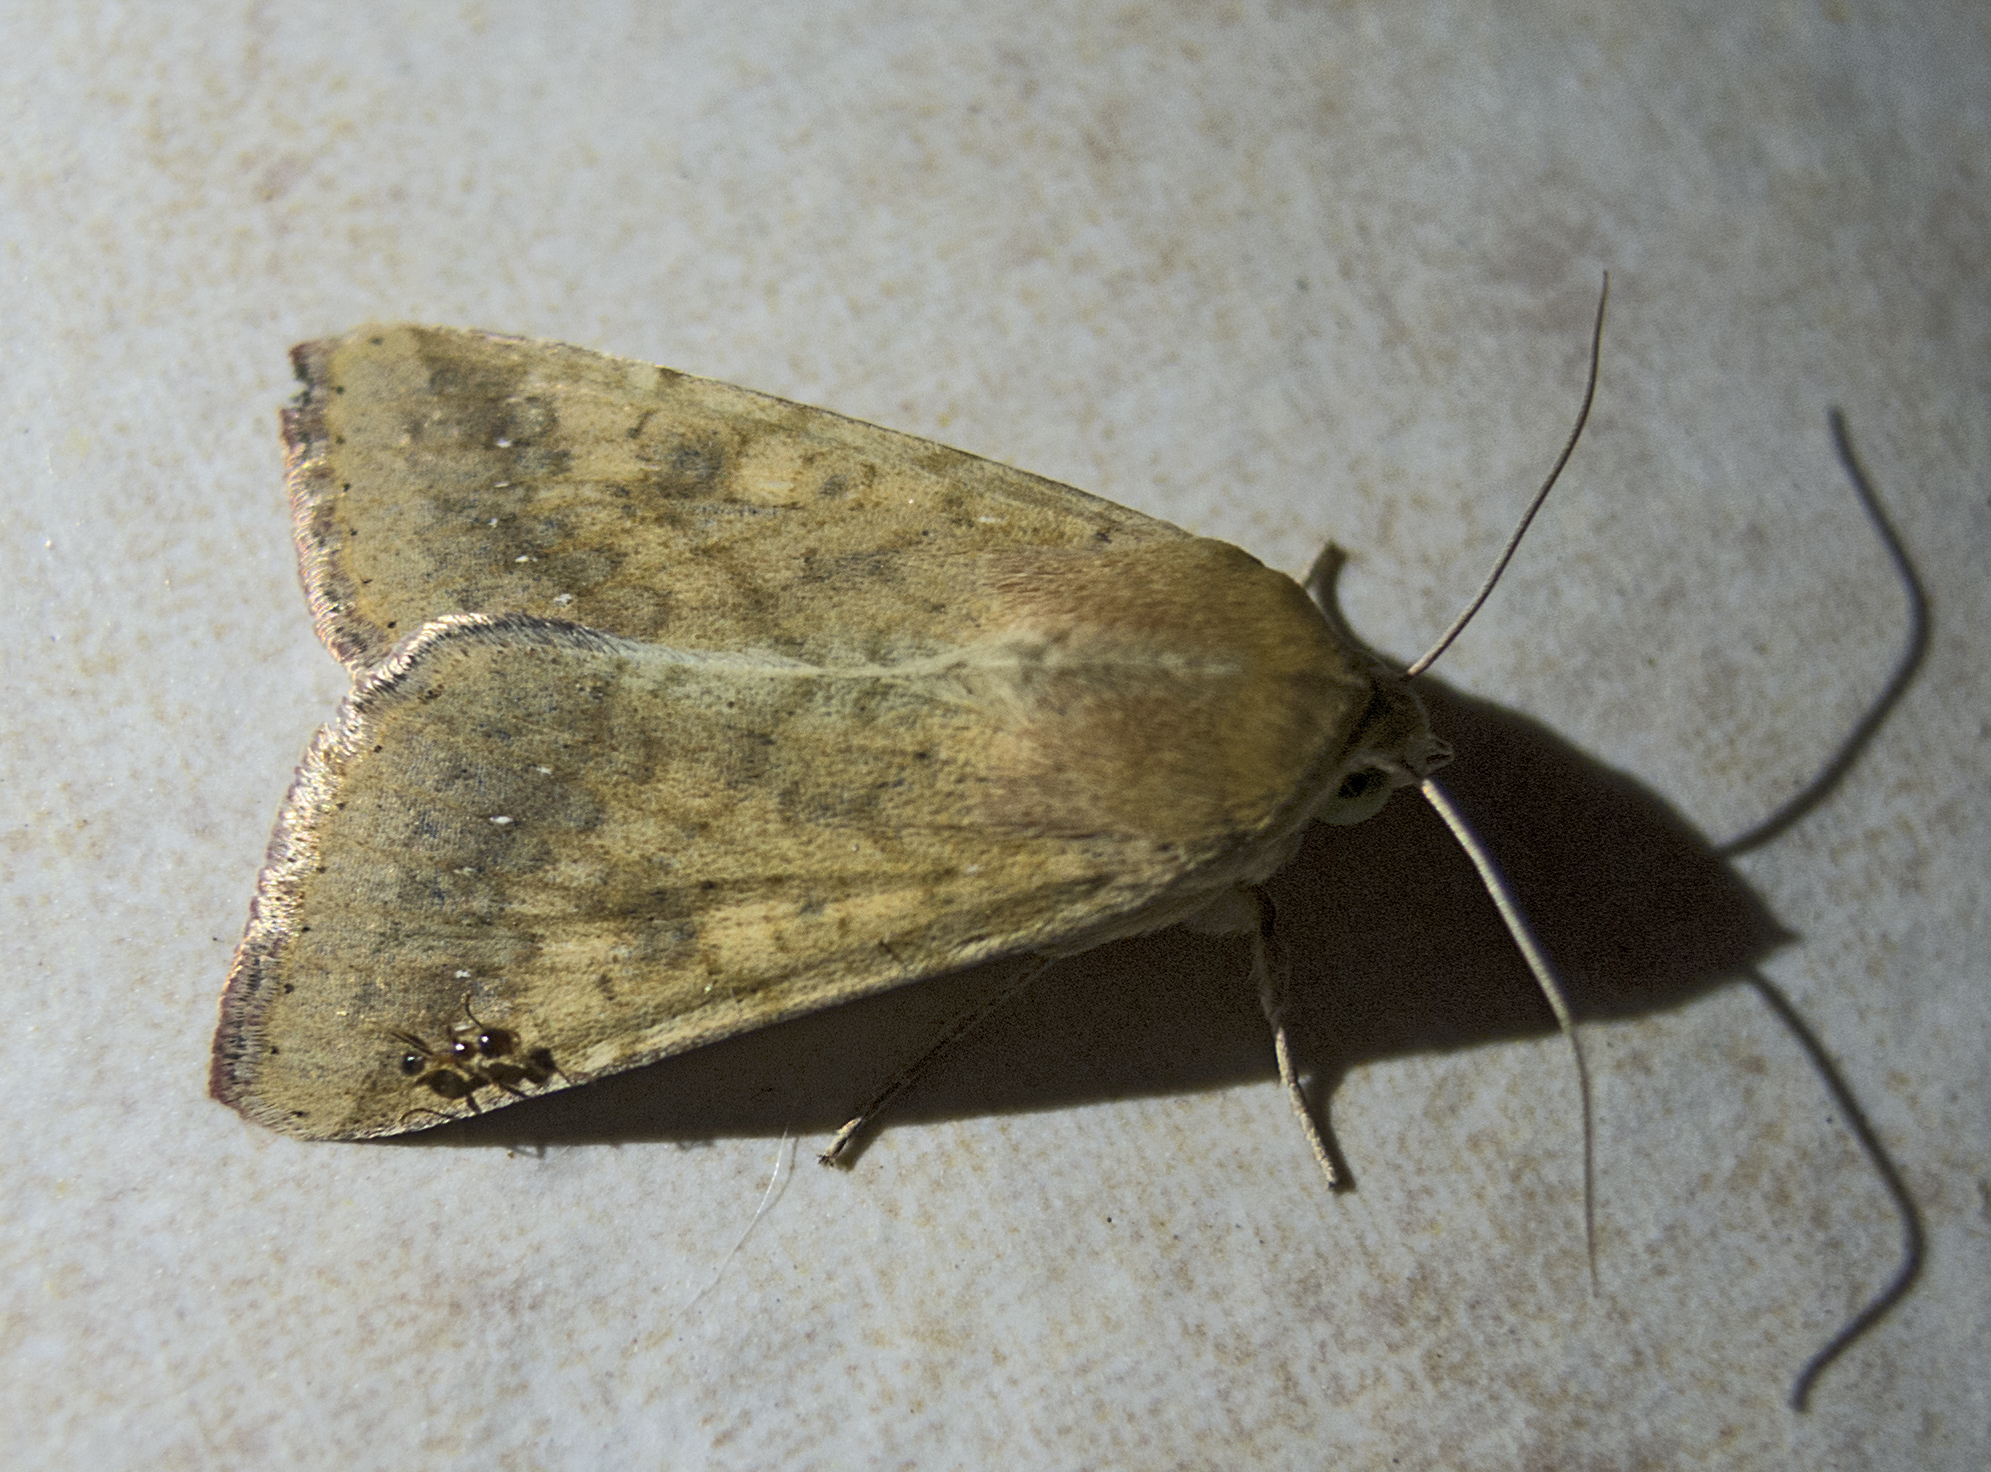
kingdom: Animalia
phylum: Arthropoda
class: Insecta
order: Lepidoptera
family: Noctuidae
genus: Helicoverpa
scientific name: Helicoverpa armigera
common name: Cotton bollworm
